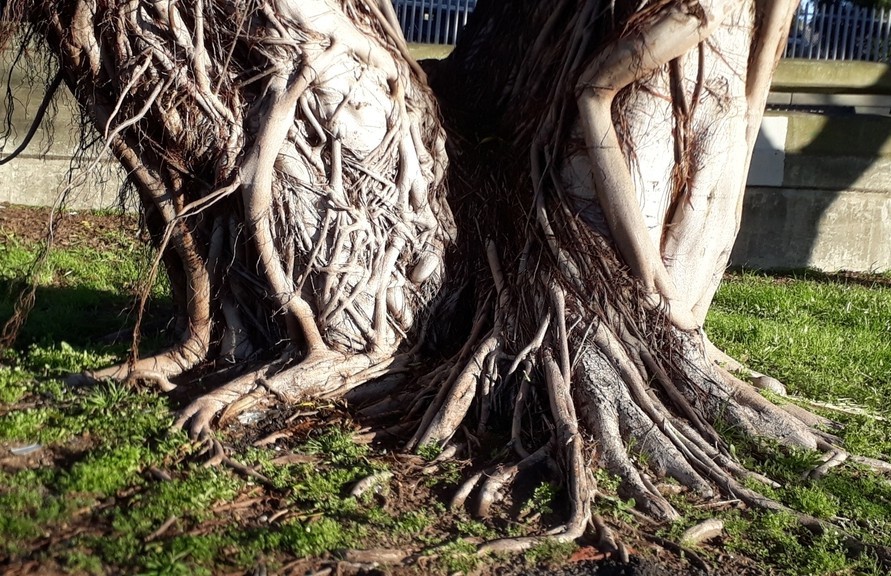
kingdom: Plantae
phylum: Tracheophyta
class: Magnoliopsida
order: Rosales
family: Moraceae
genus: Ficus
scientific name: Ficus thonningii
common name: Fig
